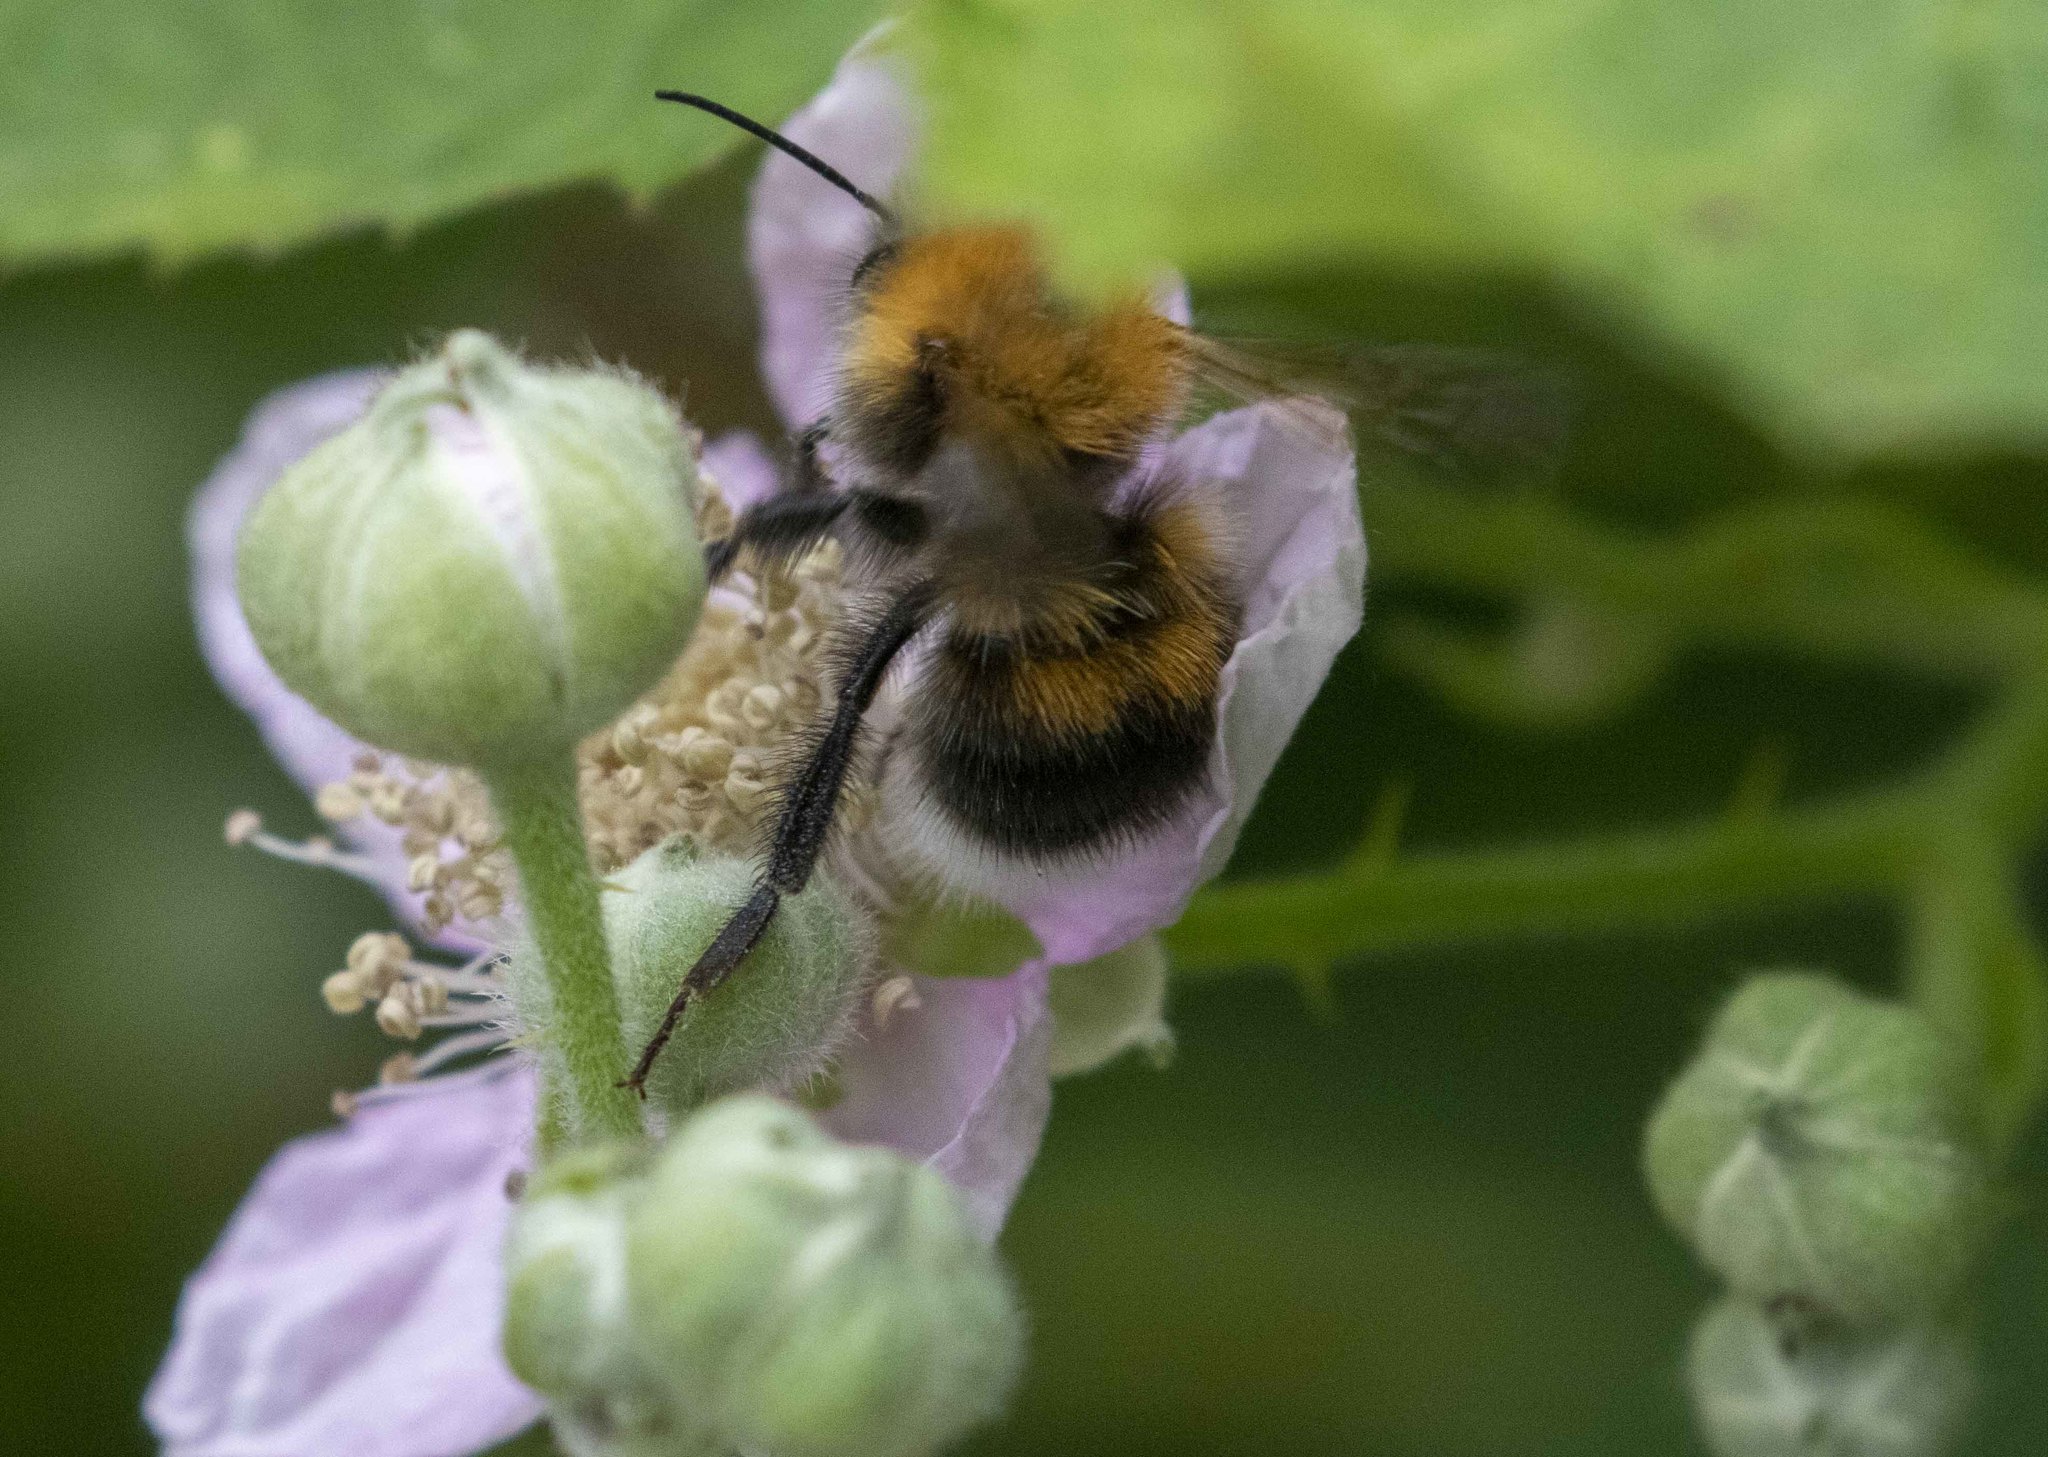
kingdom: Animalia
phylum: Arthropoda
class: Insecta
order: Hymenoptera
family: Apidae
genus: Bombus
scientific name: Bombus hypnorum
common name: New garden bumblebee
